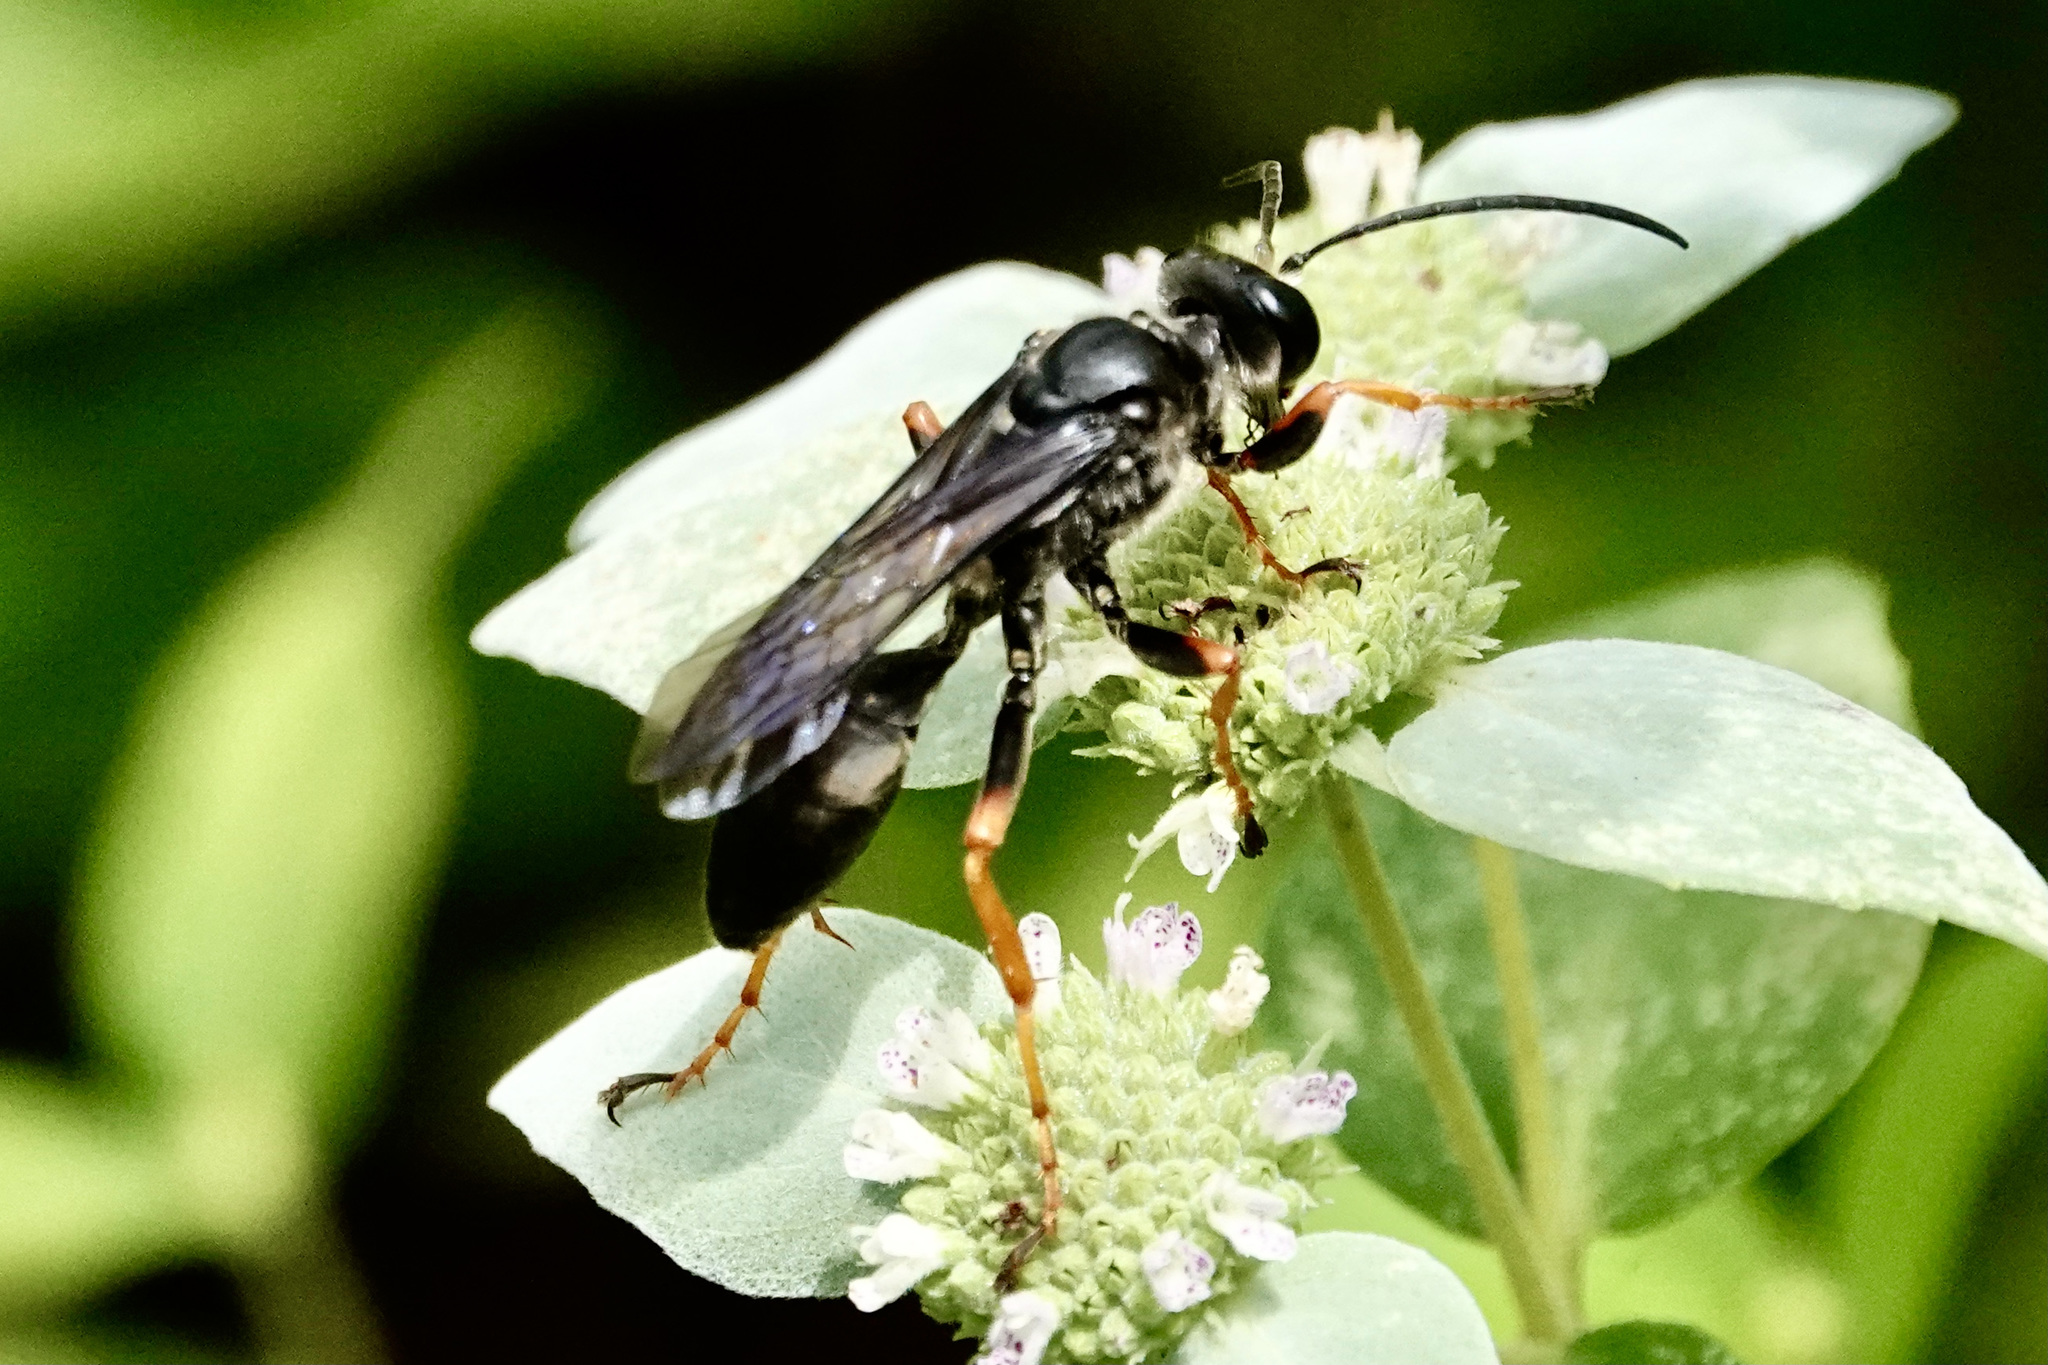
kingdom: Animalia
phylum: Arthropoda
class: Insecta
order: Hymenoptera
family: Sphecidae
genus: Sphex
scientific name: Sphex nudus
